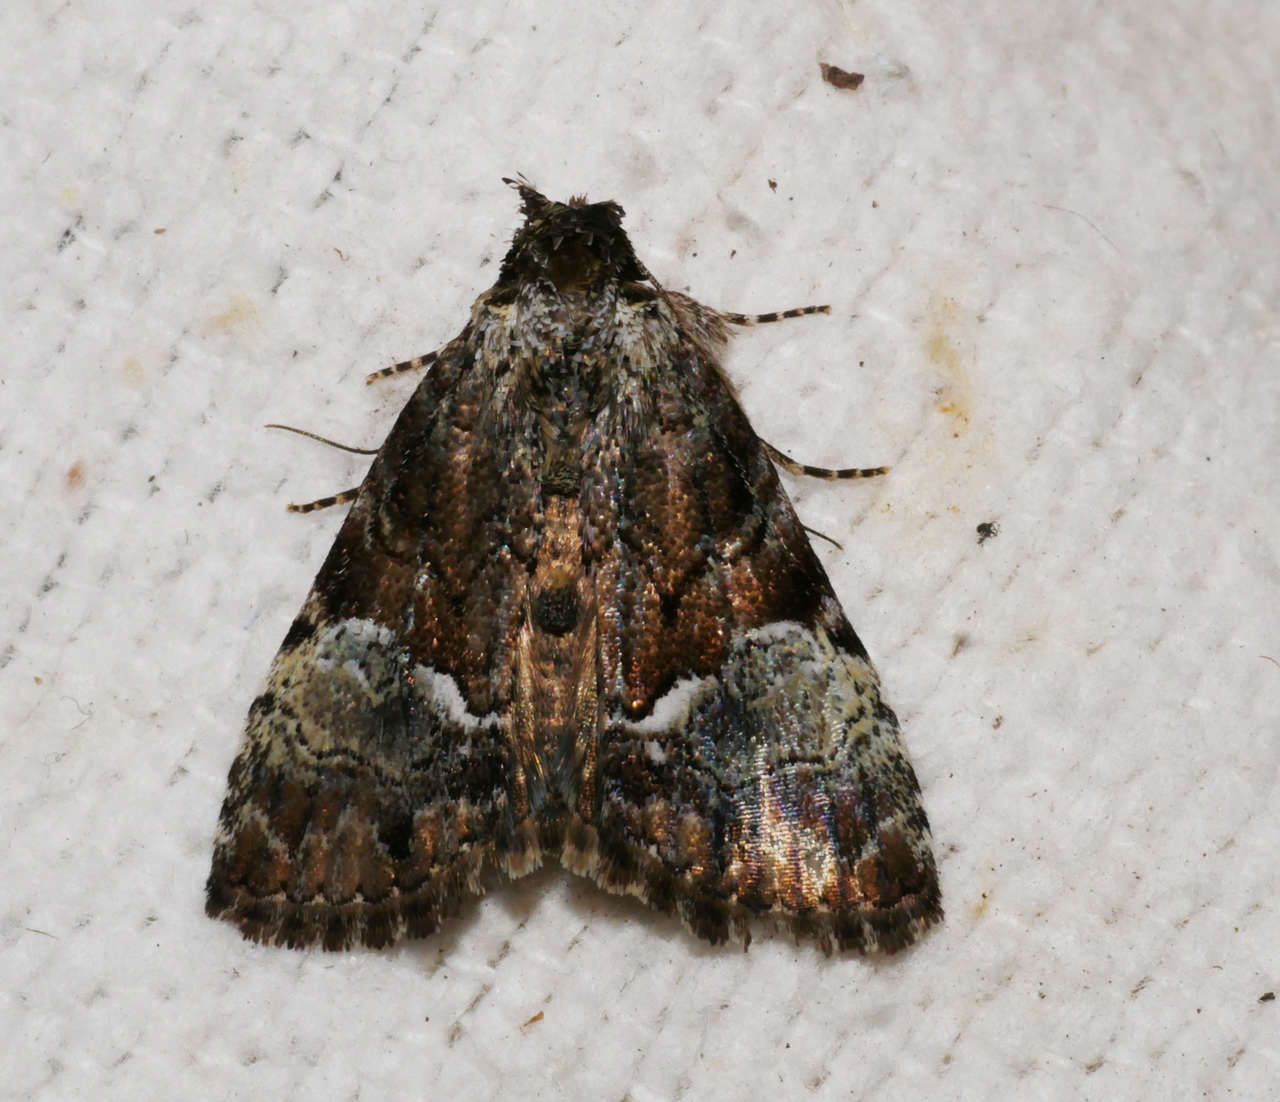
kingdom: Animalia
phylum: Arthropoda
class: Insecta
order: Lepidoptera
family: Erebidae
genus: Alophosoma
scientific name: Alophosoma emmelopis
